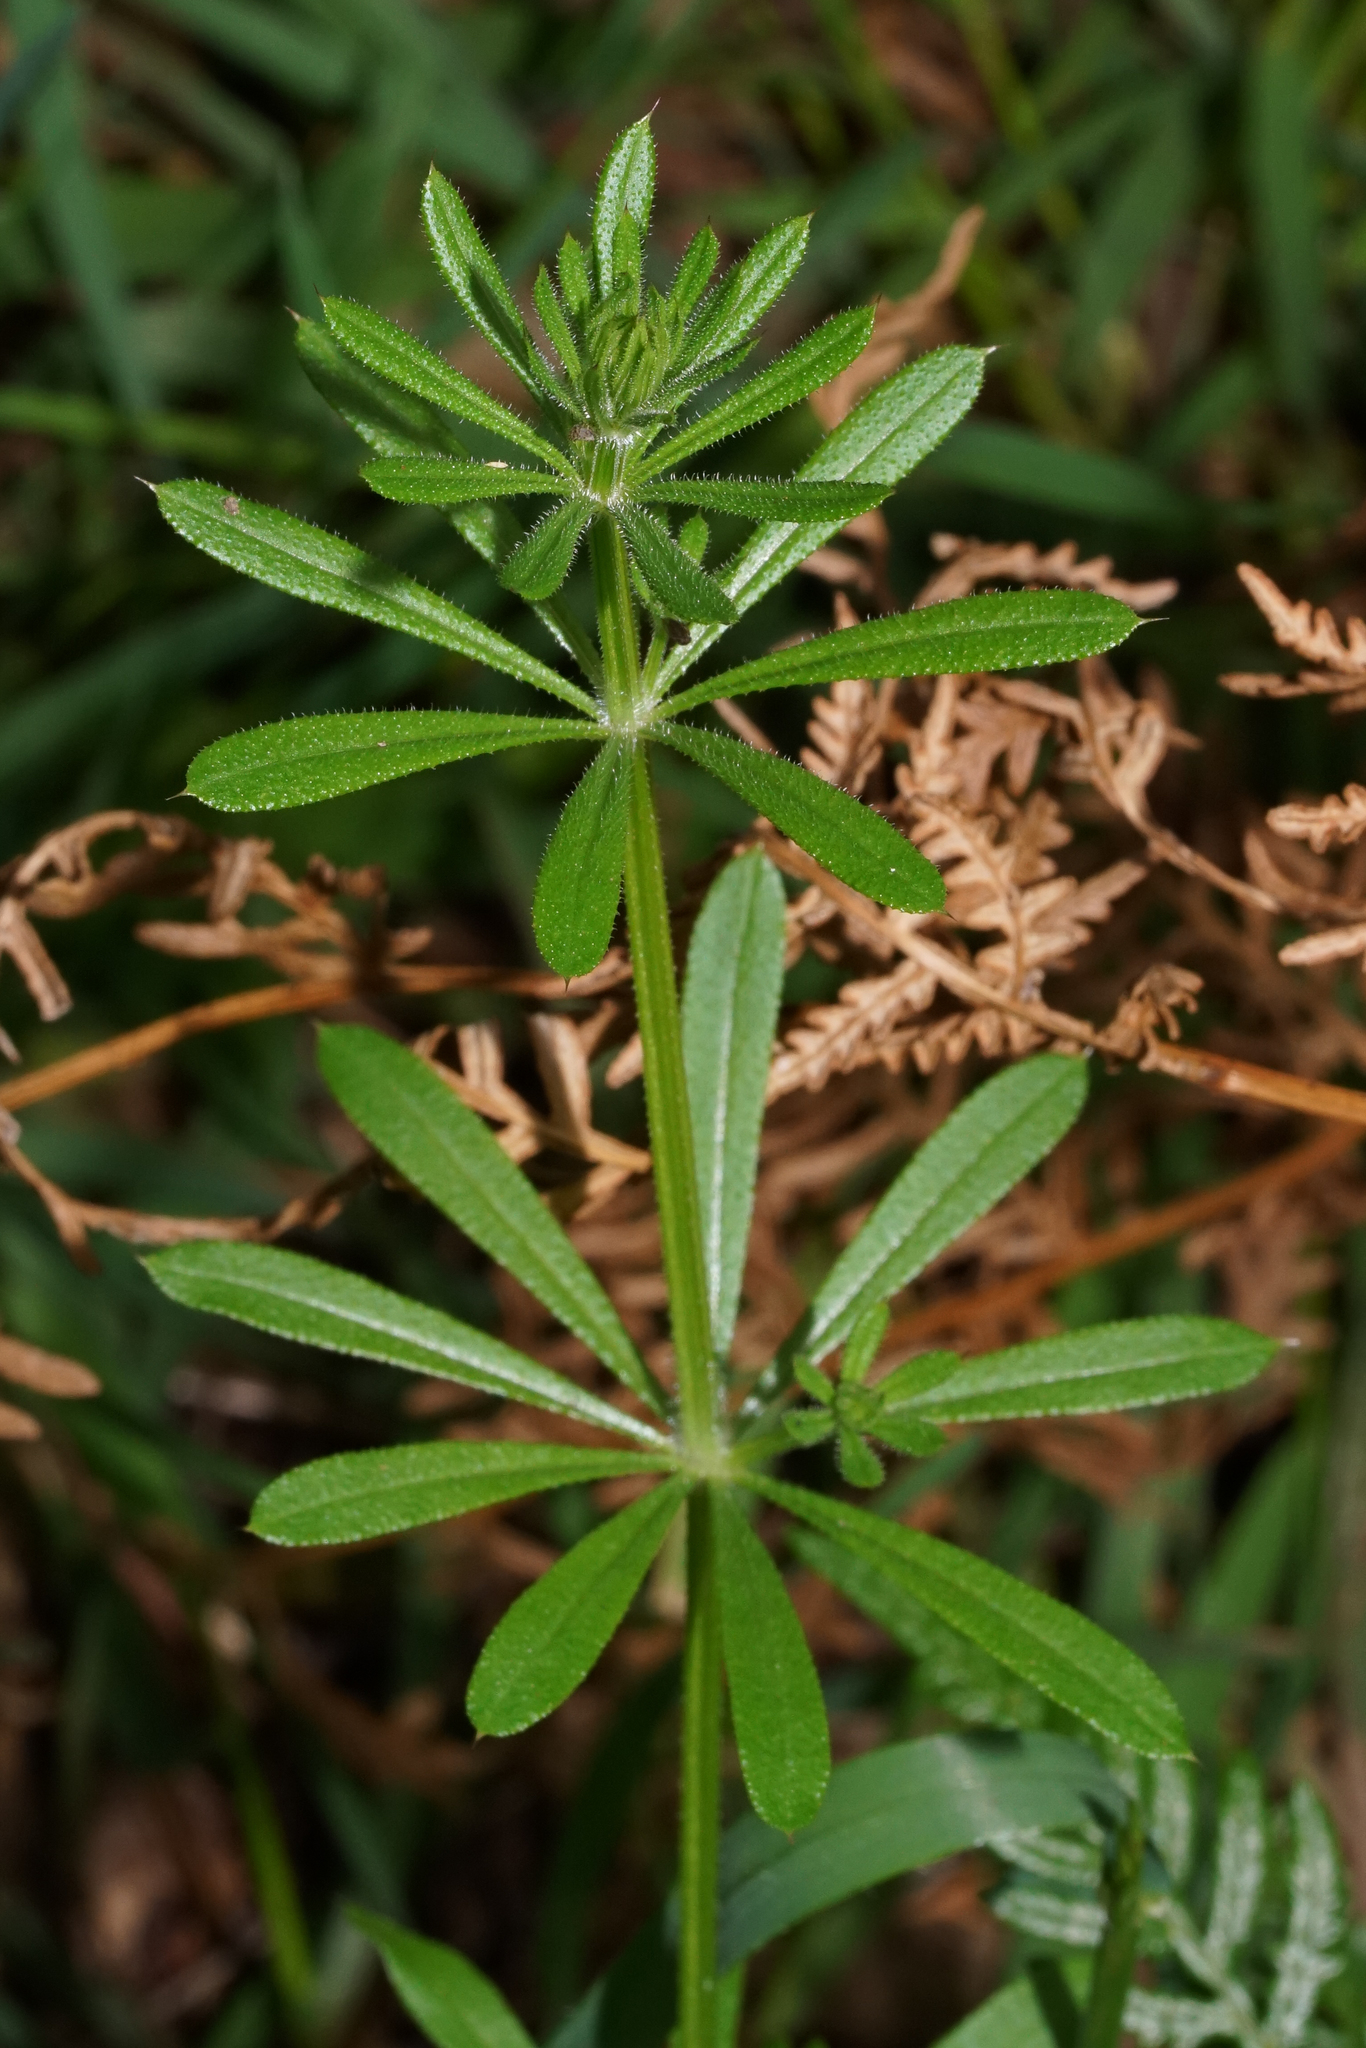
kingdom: Plantae
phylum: Tracheophyta
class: Magnoliopsida
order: Gentianales
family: Rubiaceae
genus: Galium
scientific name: Galium aparine
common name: Cleavers
